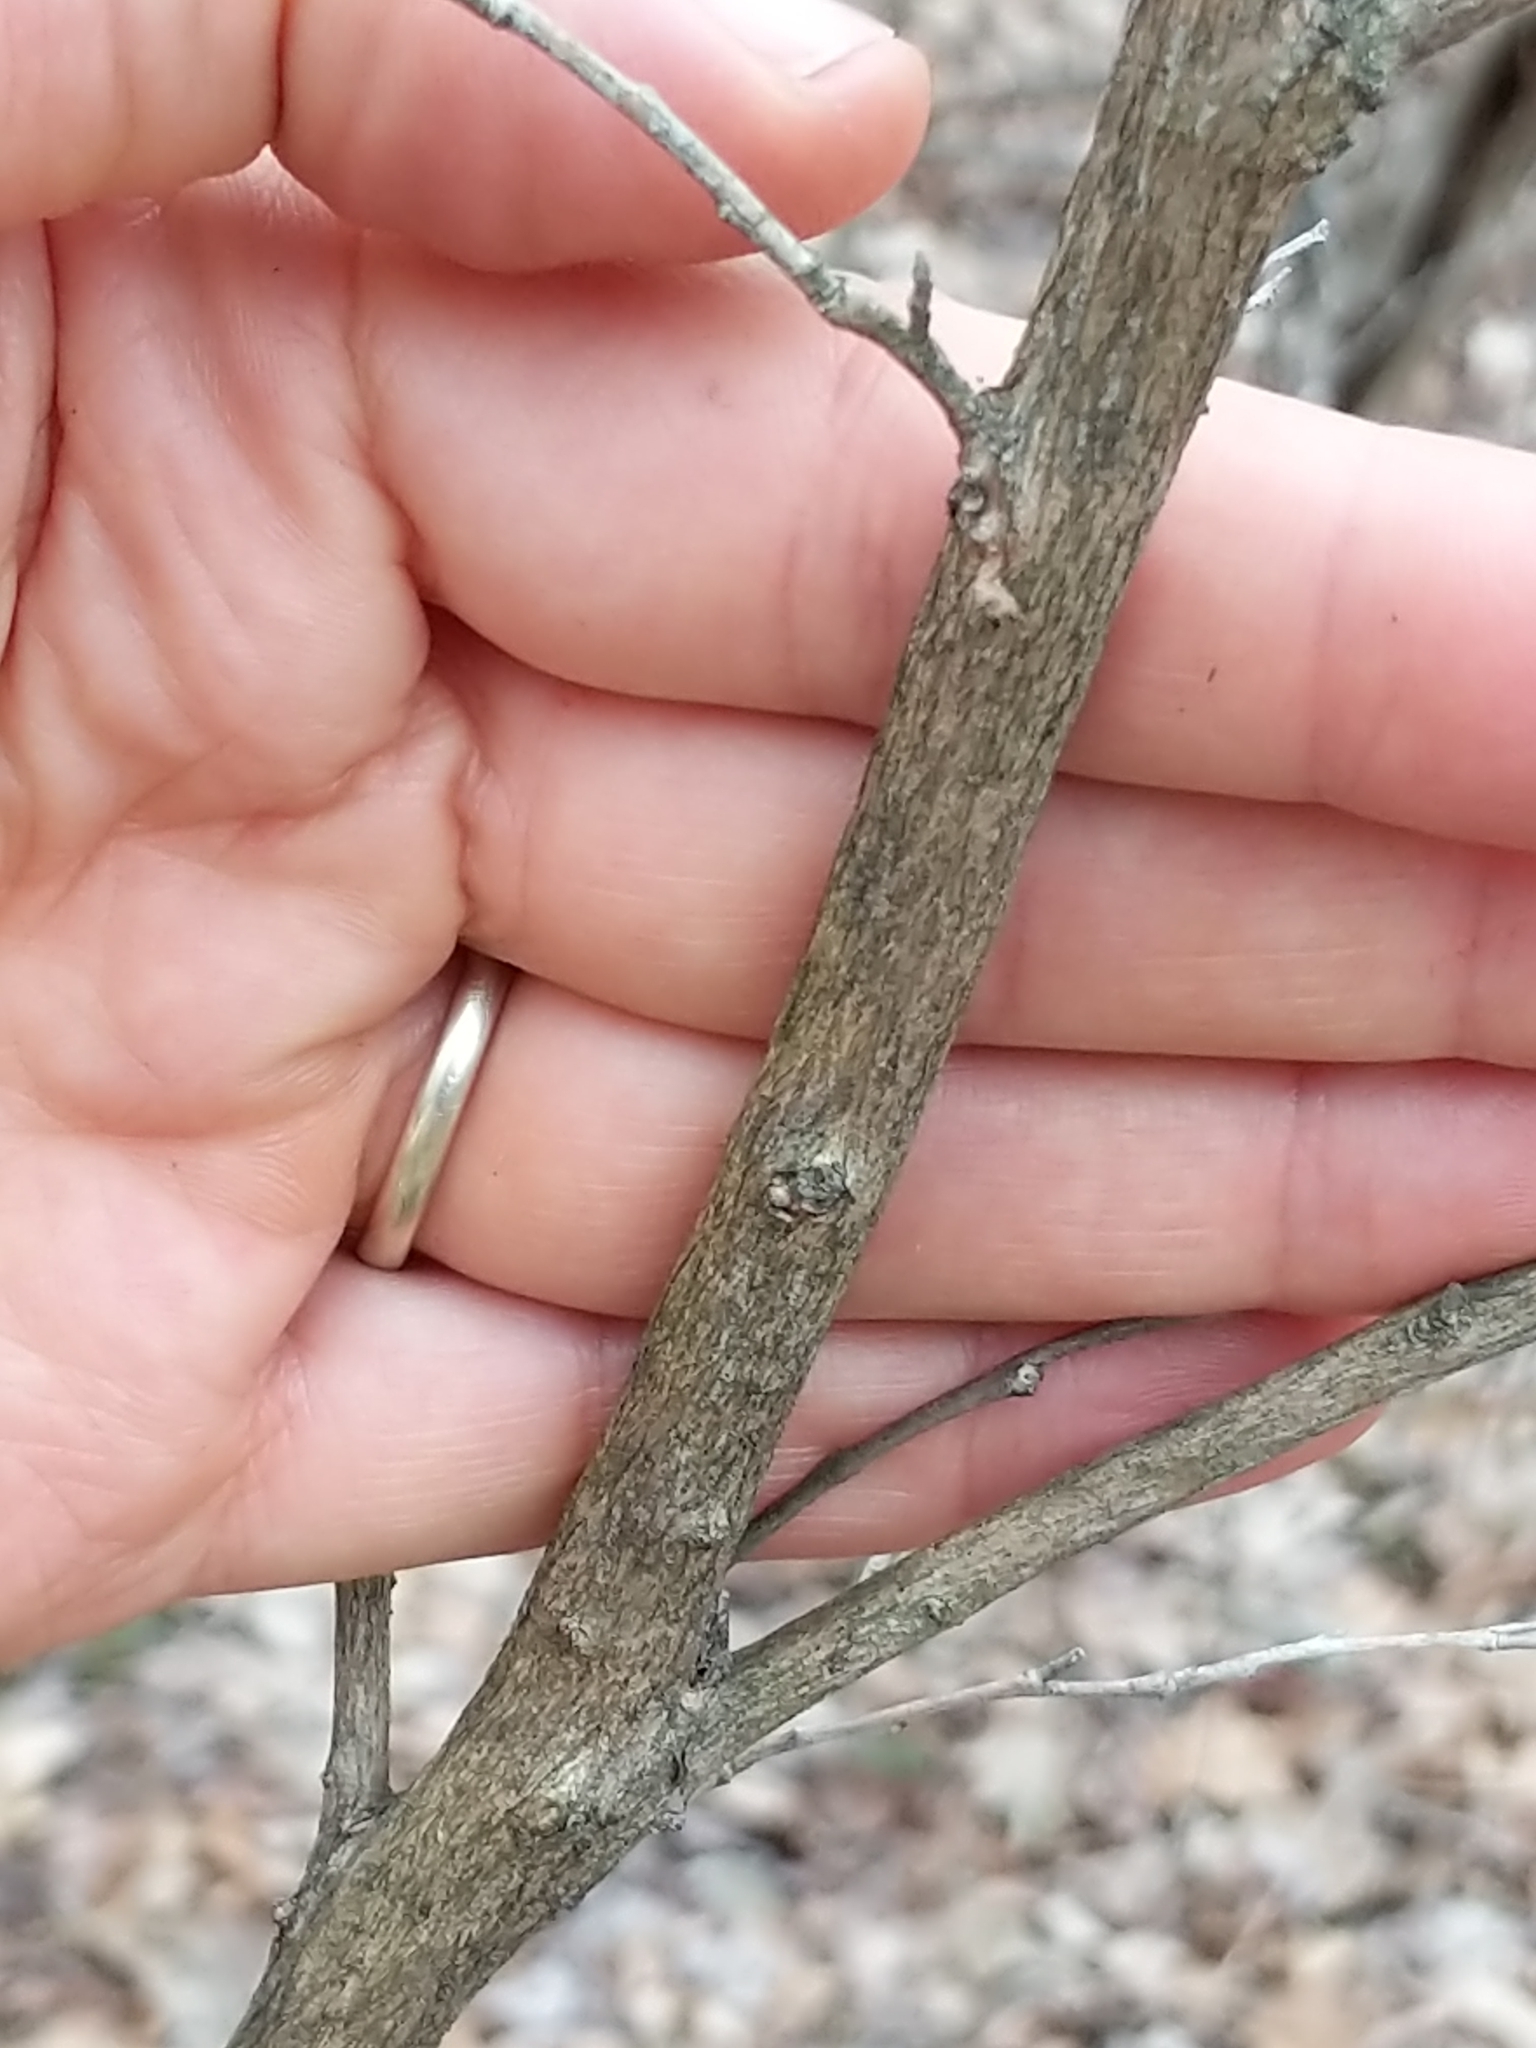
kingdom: Plantae
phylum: Tracheophyta
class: Magnoliopsida
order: Ericales
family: Ericaceae
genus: Lyonia
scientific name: Lyonia ligustrina
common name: Maleberry
